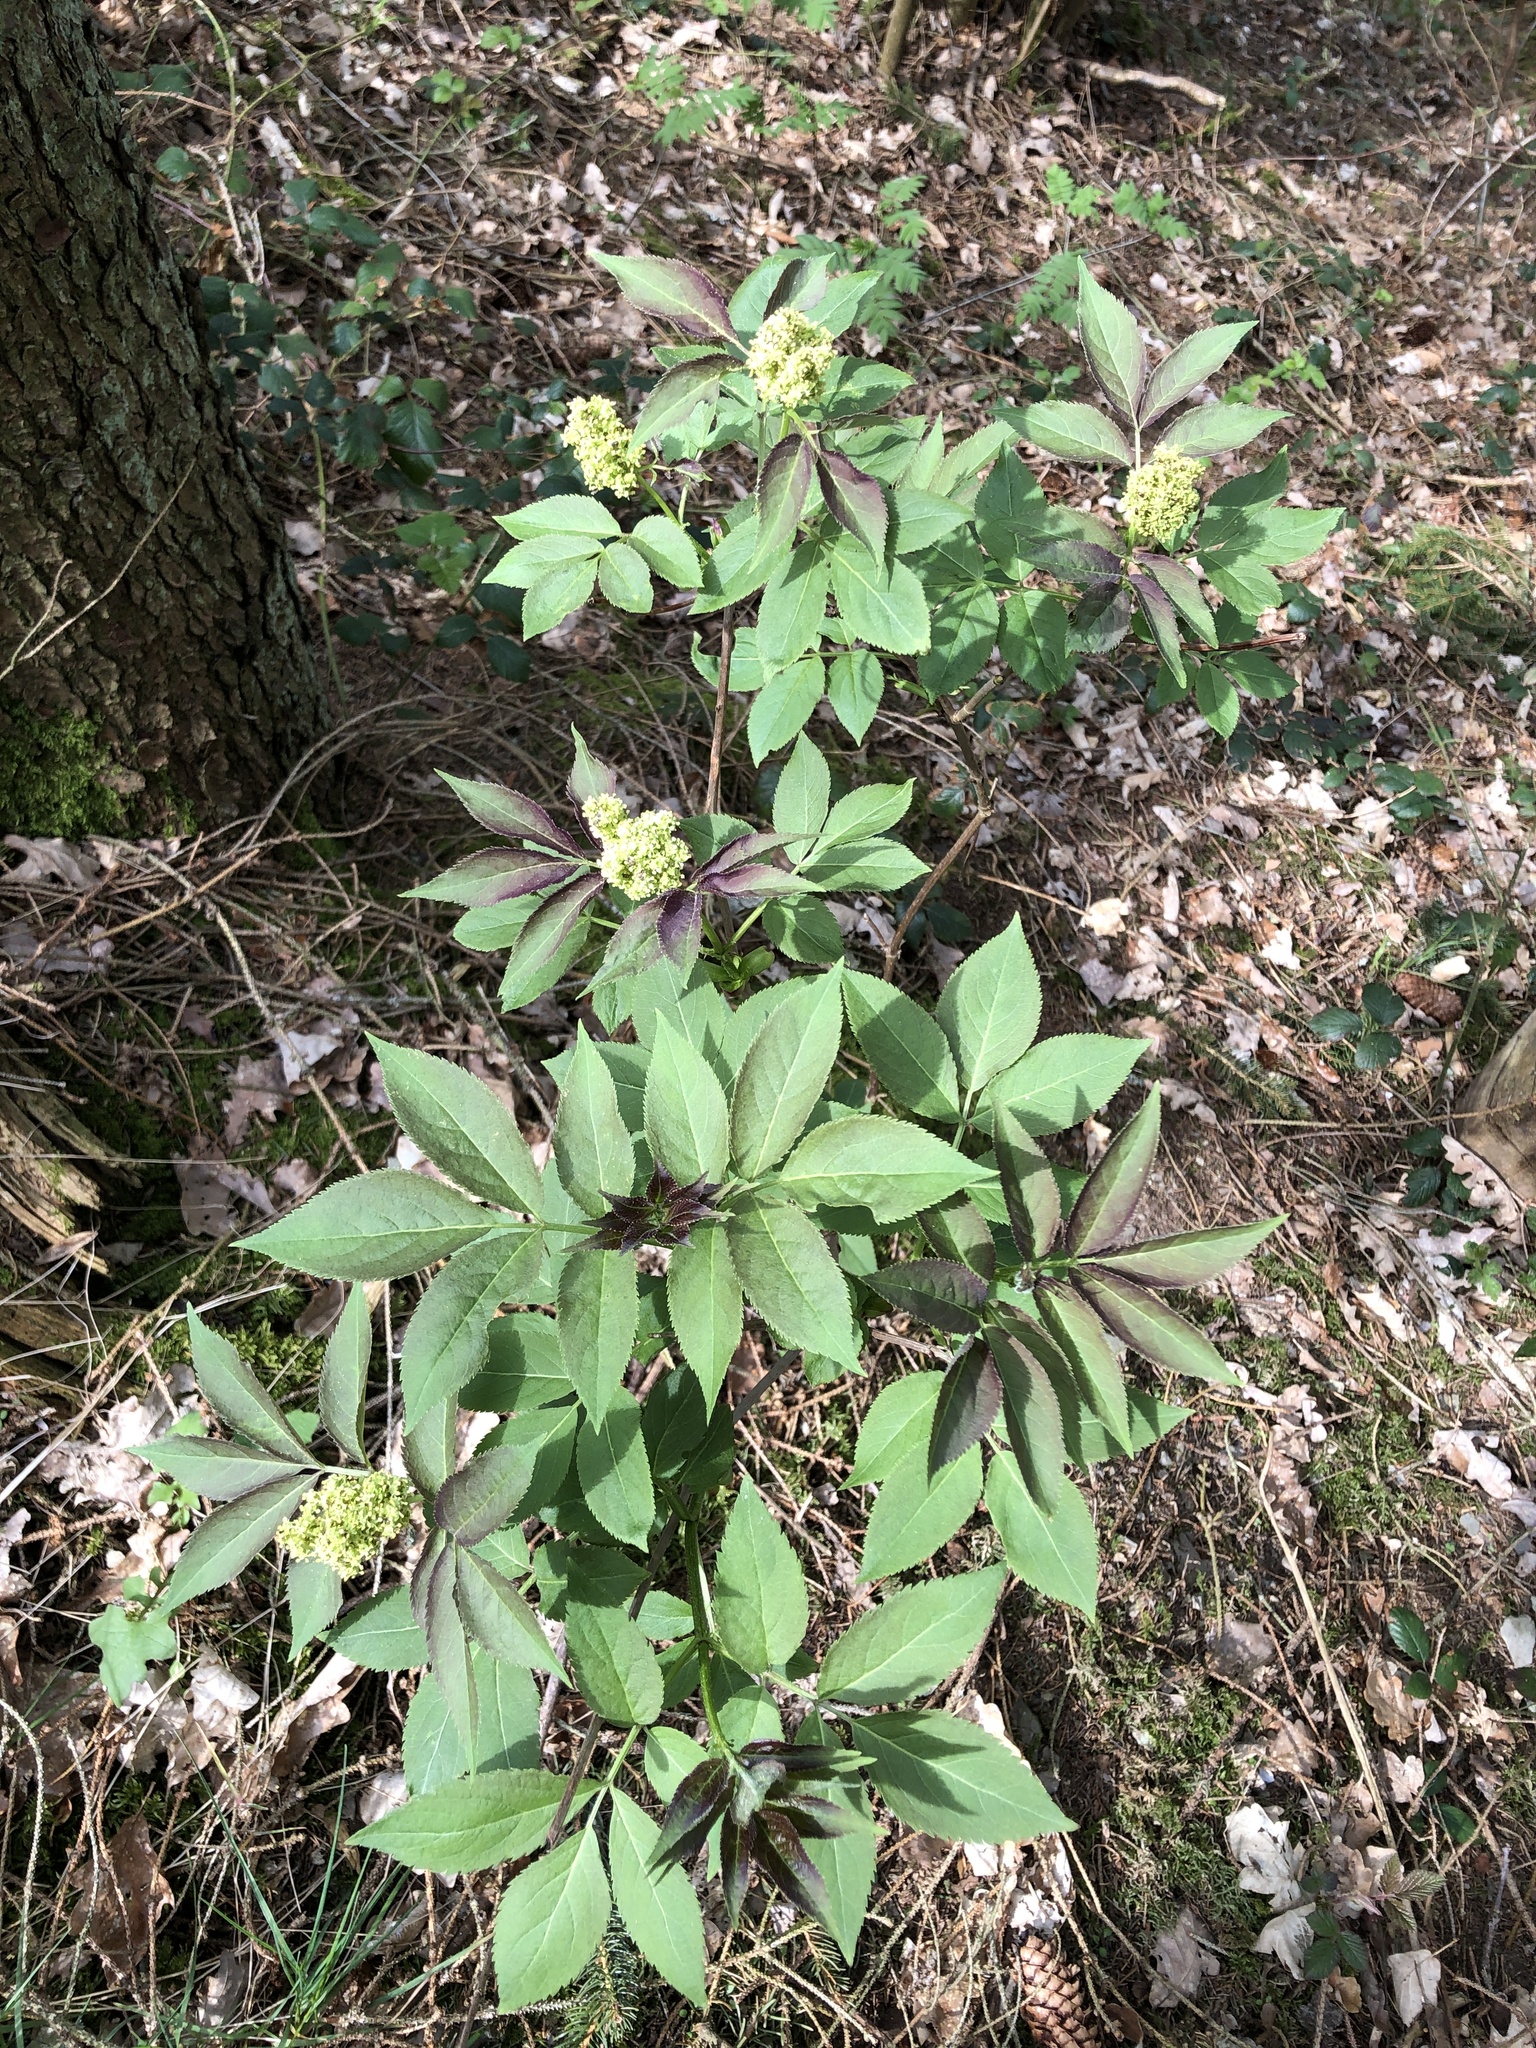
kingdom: Plantae
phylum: Tracheophyta
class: Magnoliopsida
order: Dipsacales
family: Viburnaceae
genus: Sambucus
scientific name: Sambucus racemosa
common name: Red-berried elder
